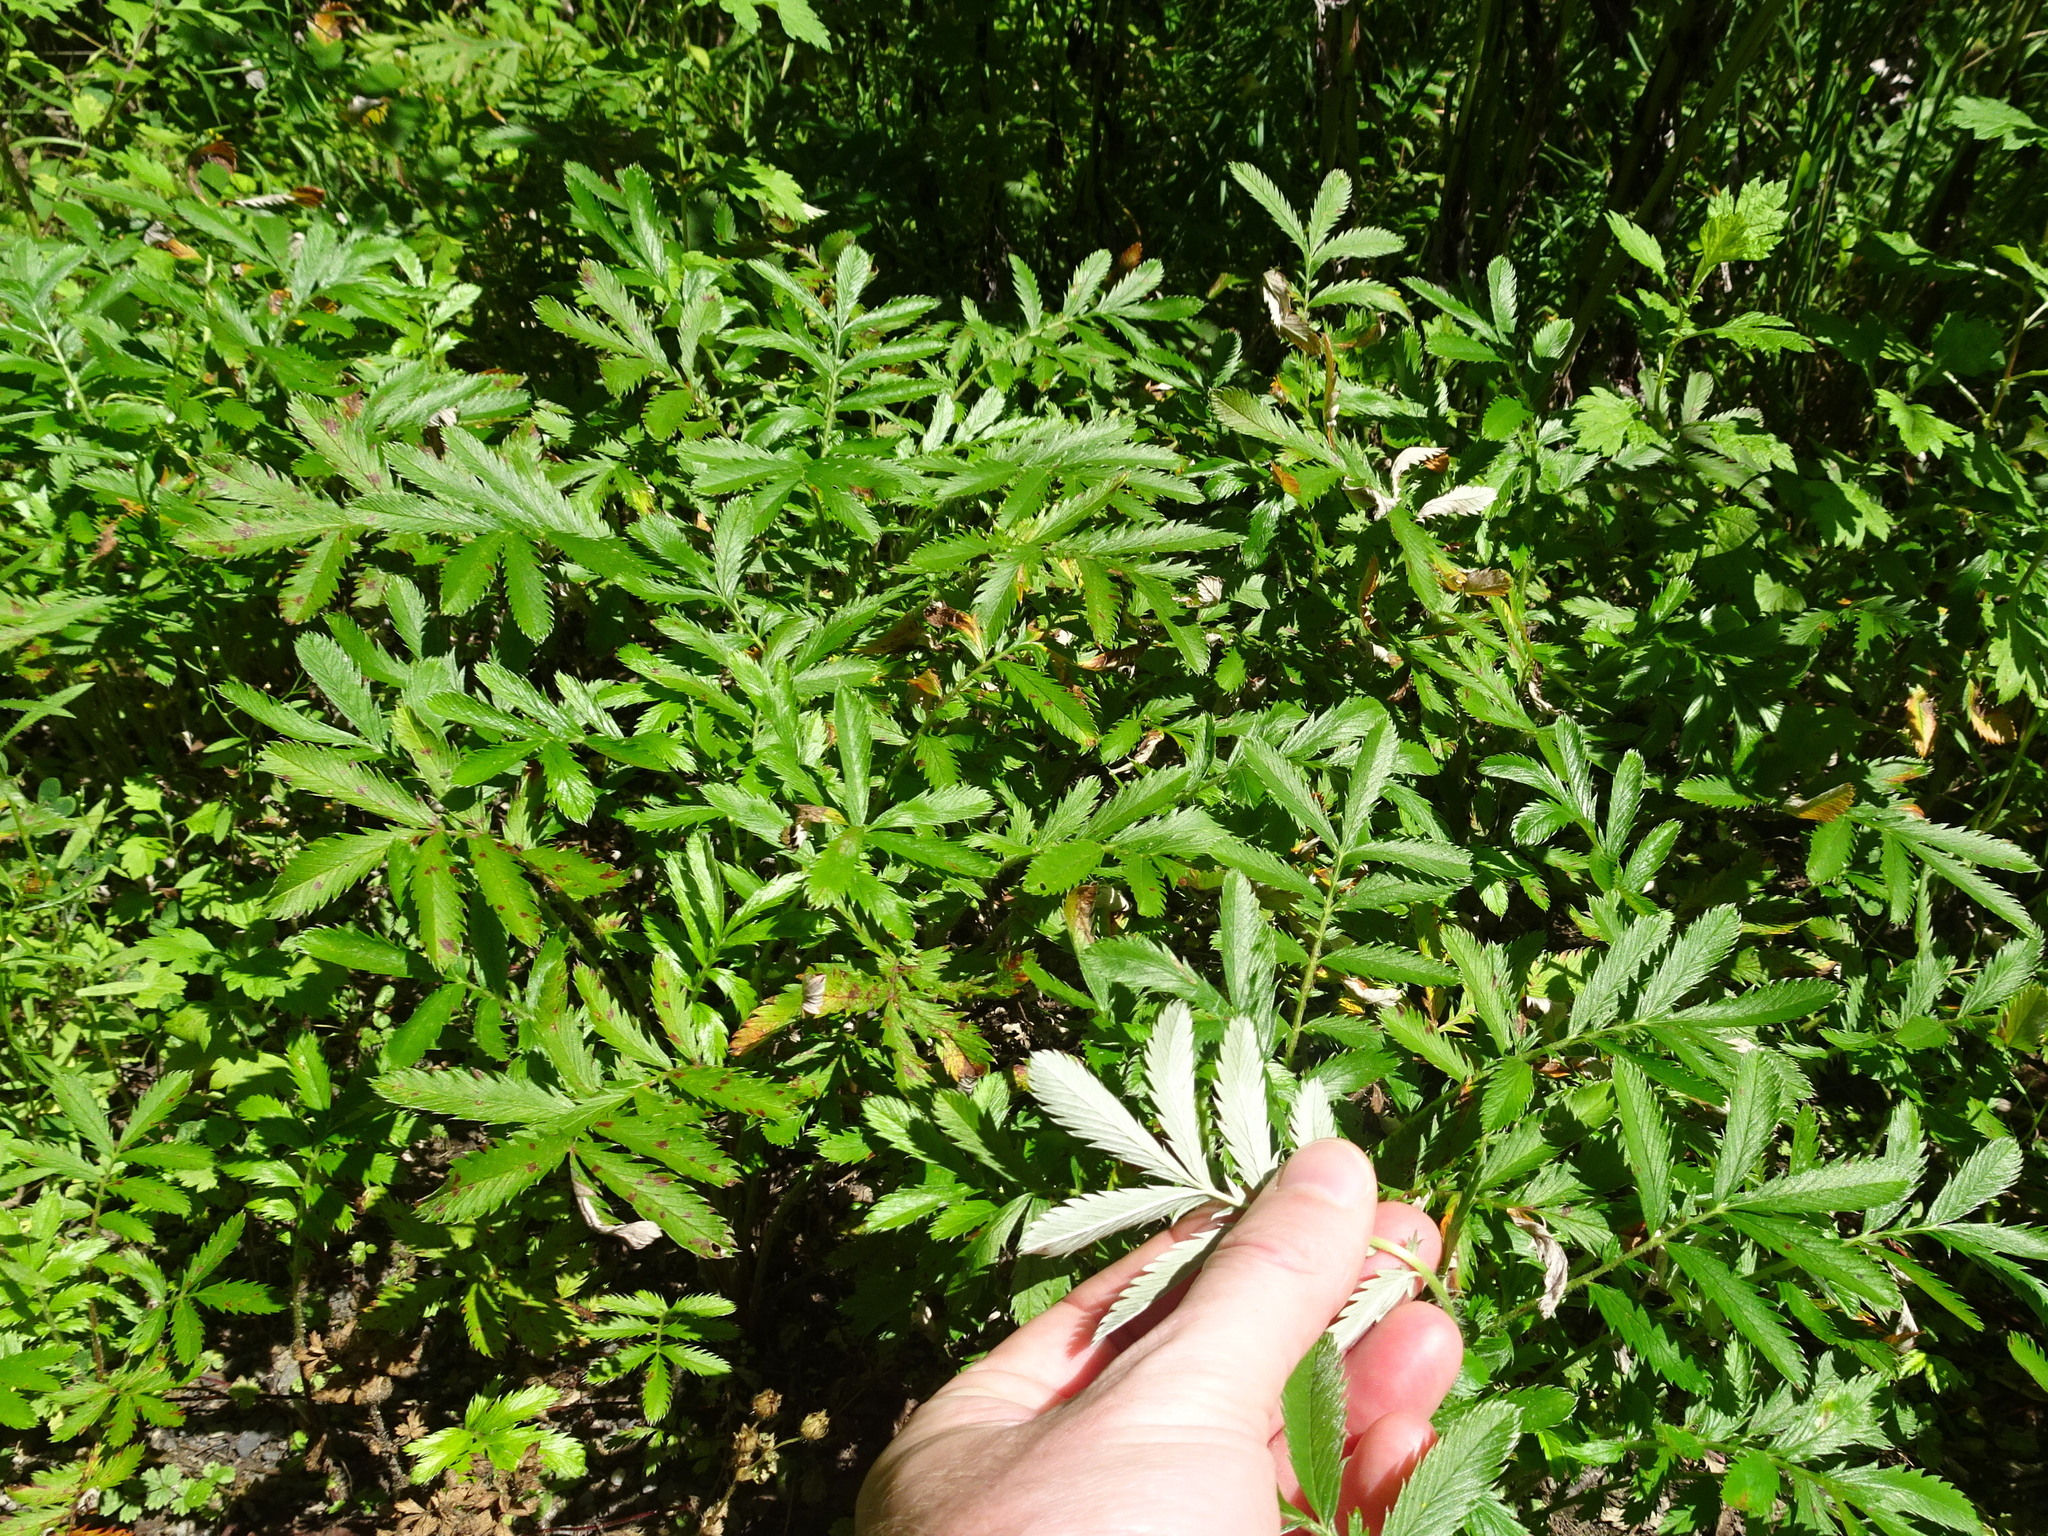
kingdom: Plantae
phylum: Tracheophyta
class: Magnoliopsida
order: Rosales
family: Rosaceae
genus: Argentina
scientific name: Argentina anserina
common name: Common silverweed
